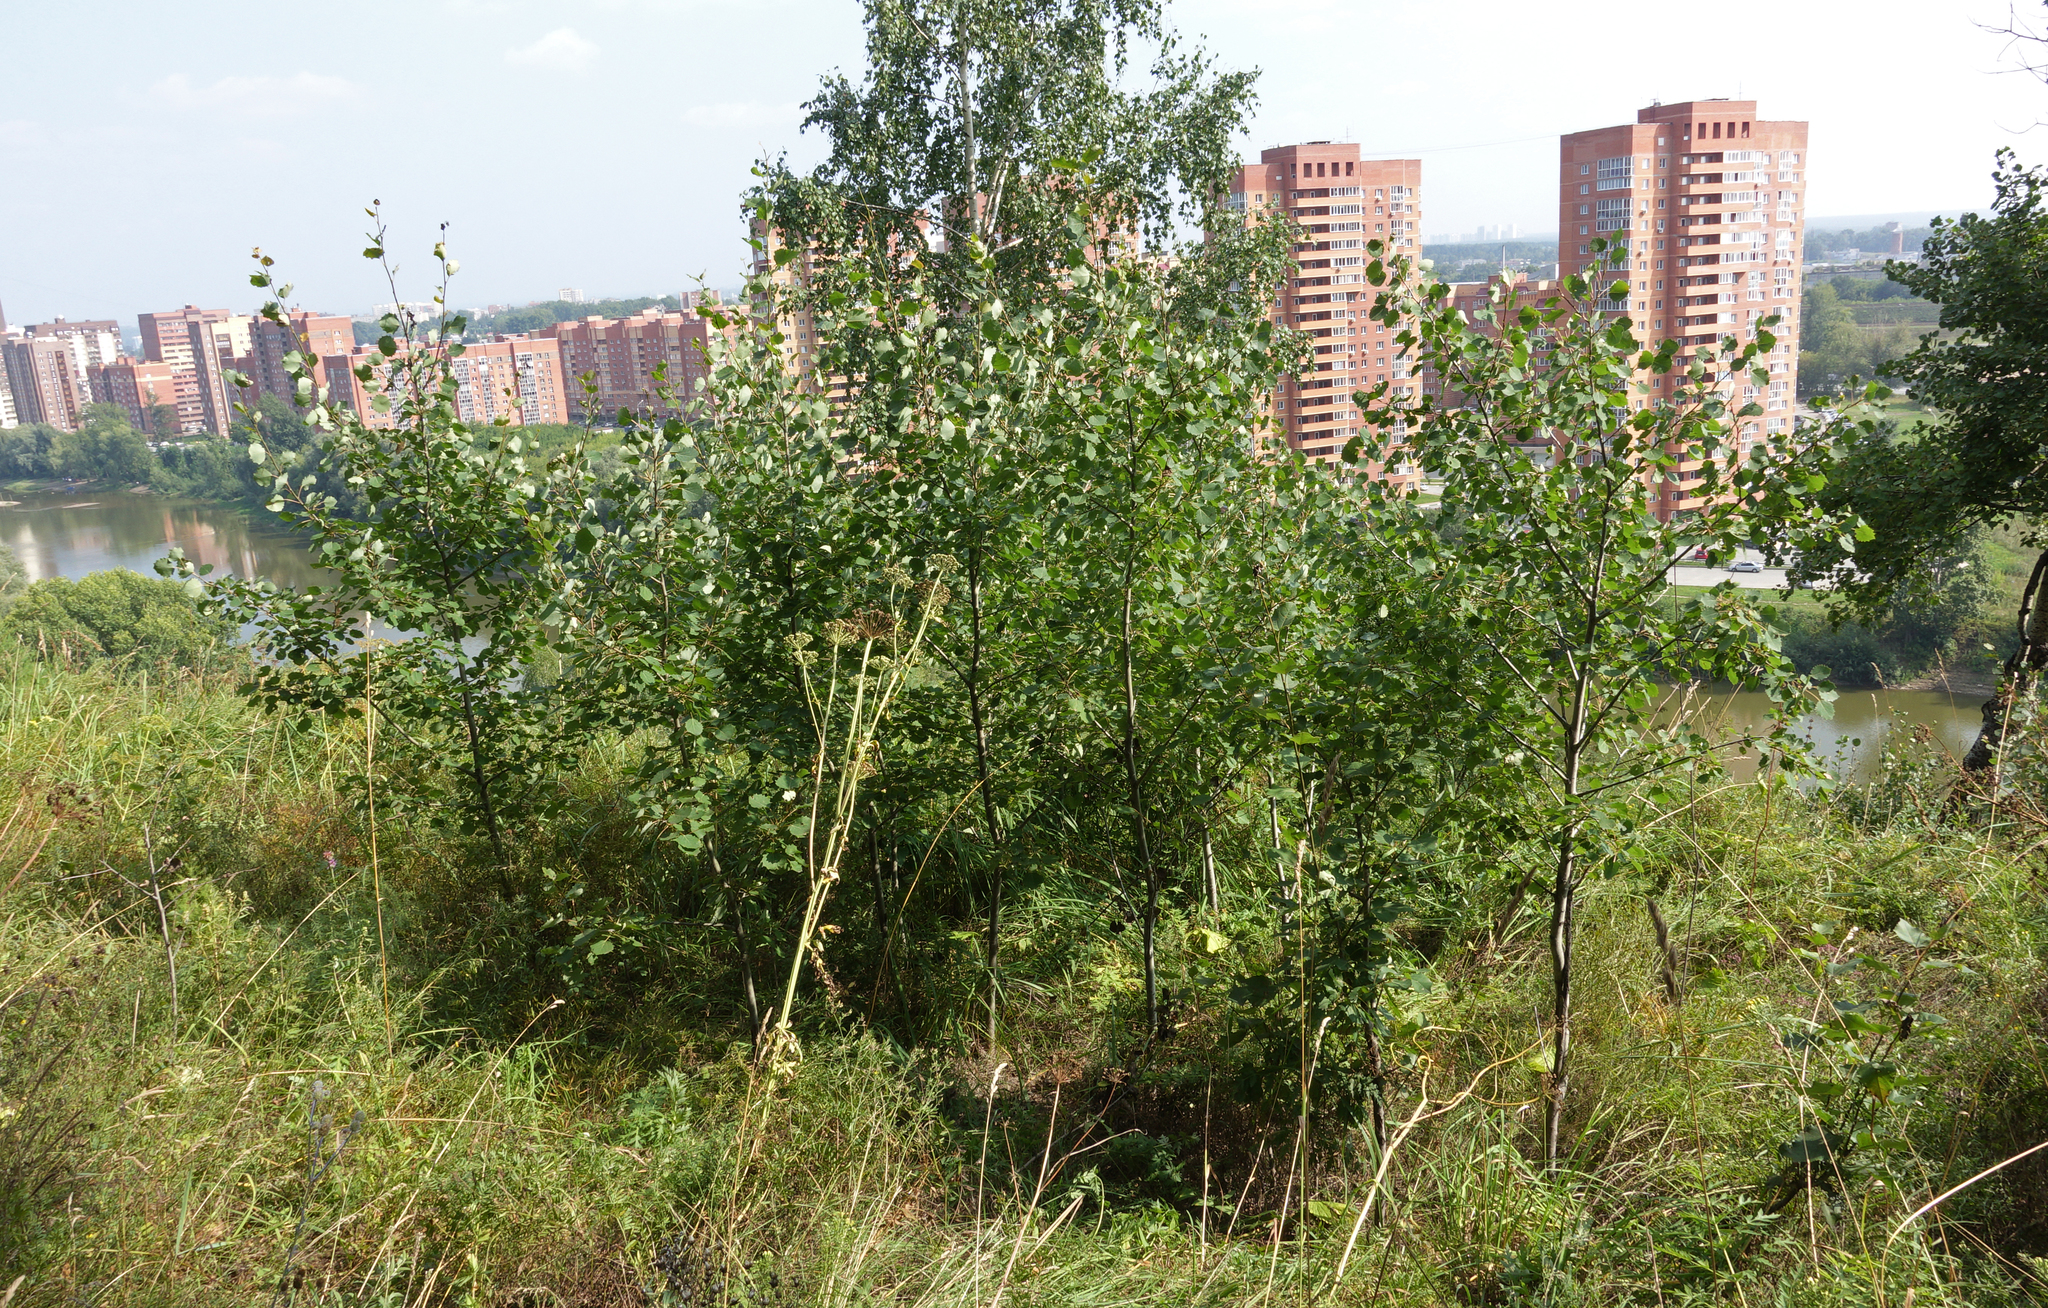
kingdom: Plantae
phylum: Tracheophyta
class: Magnoliopsida
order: Malpighiales
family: Salicaceae
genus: Populus
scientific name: Populus tremula
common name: European aspen
